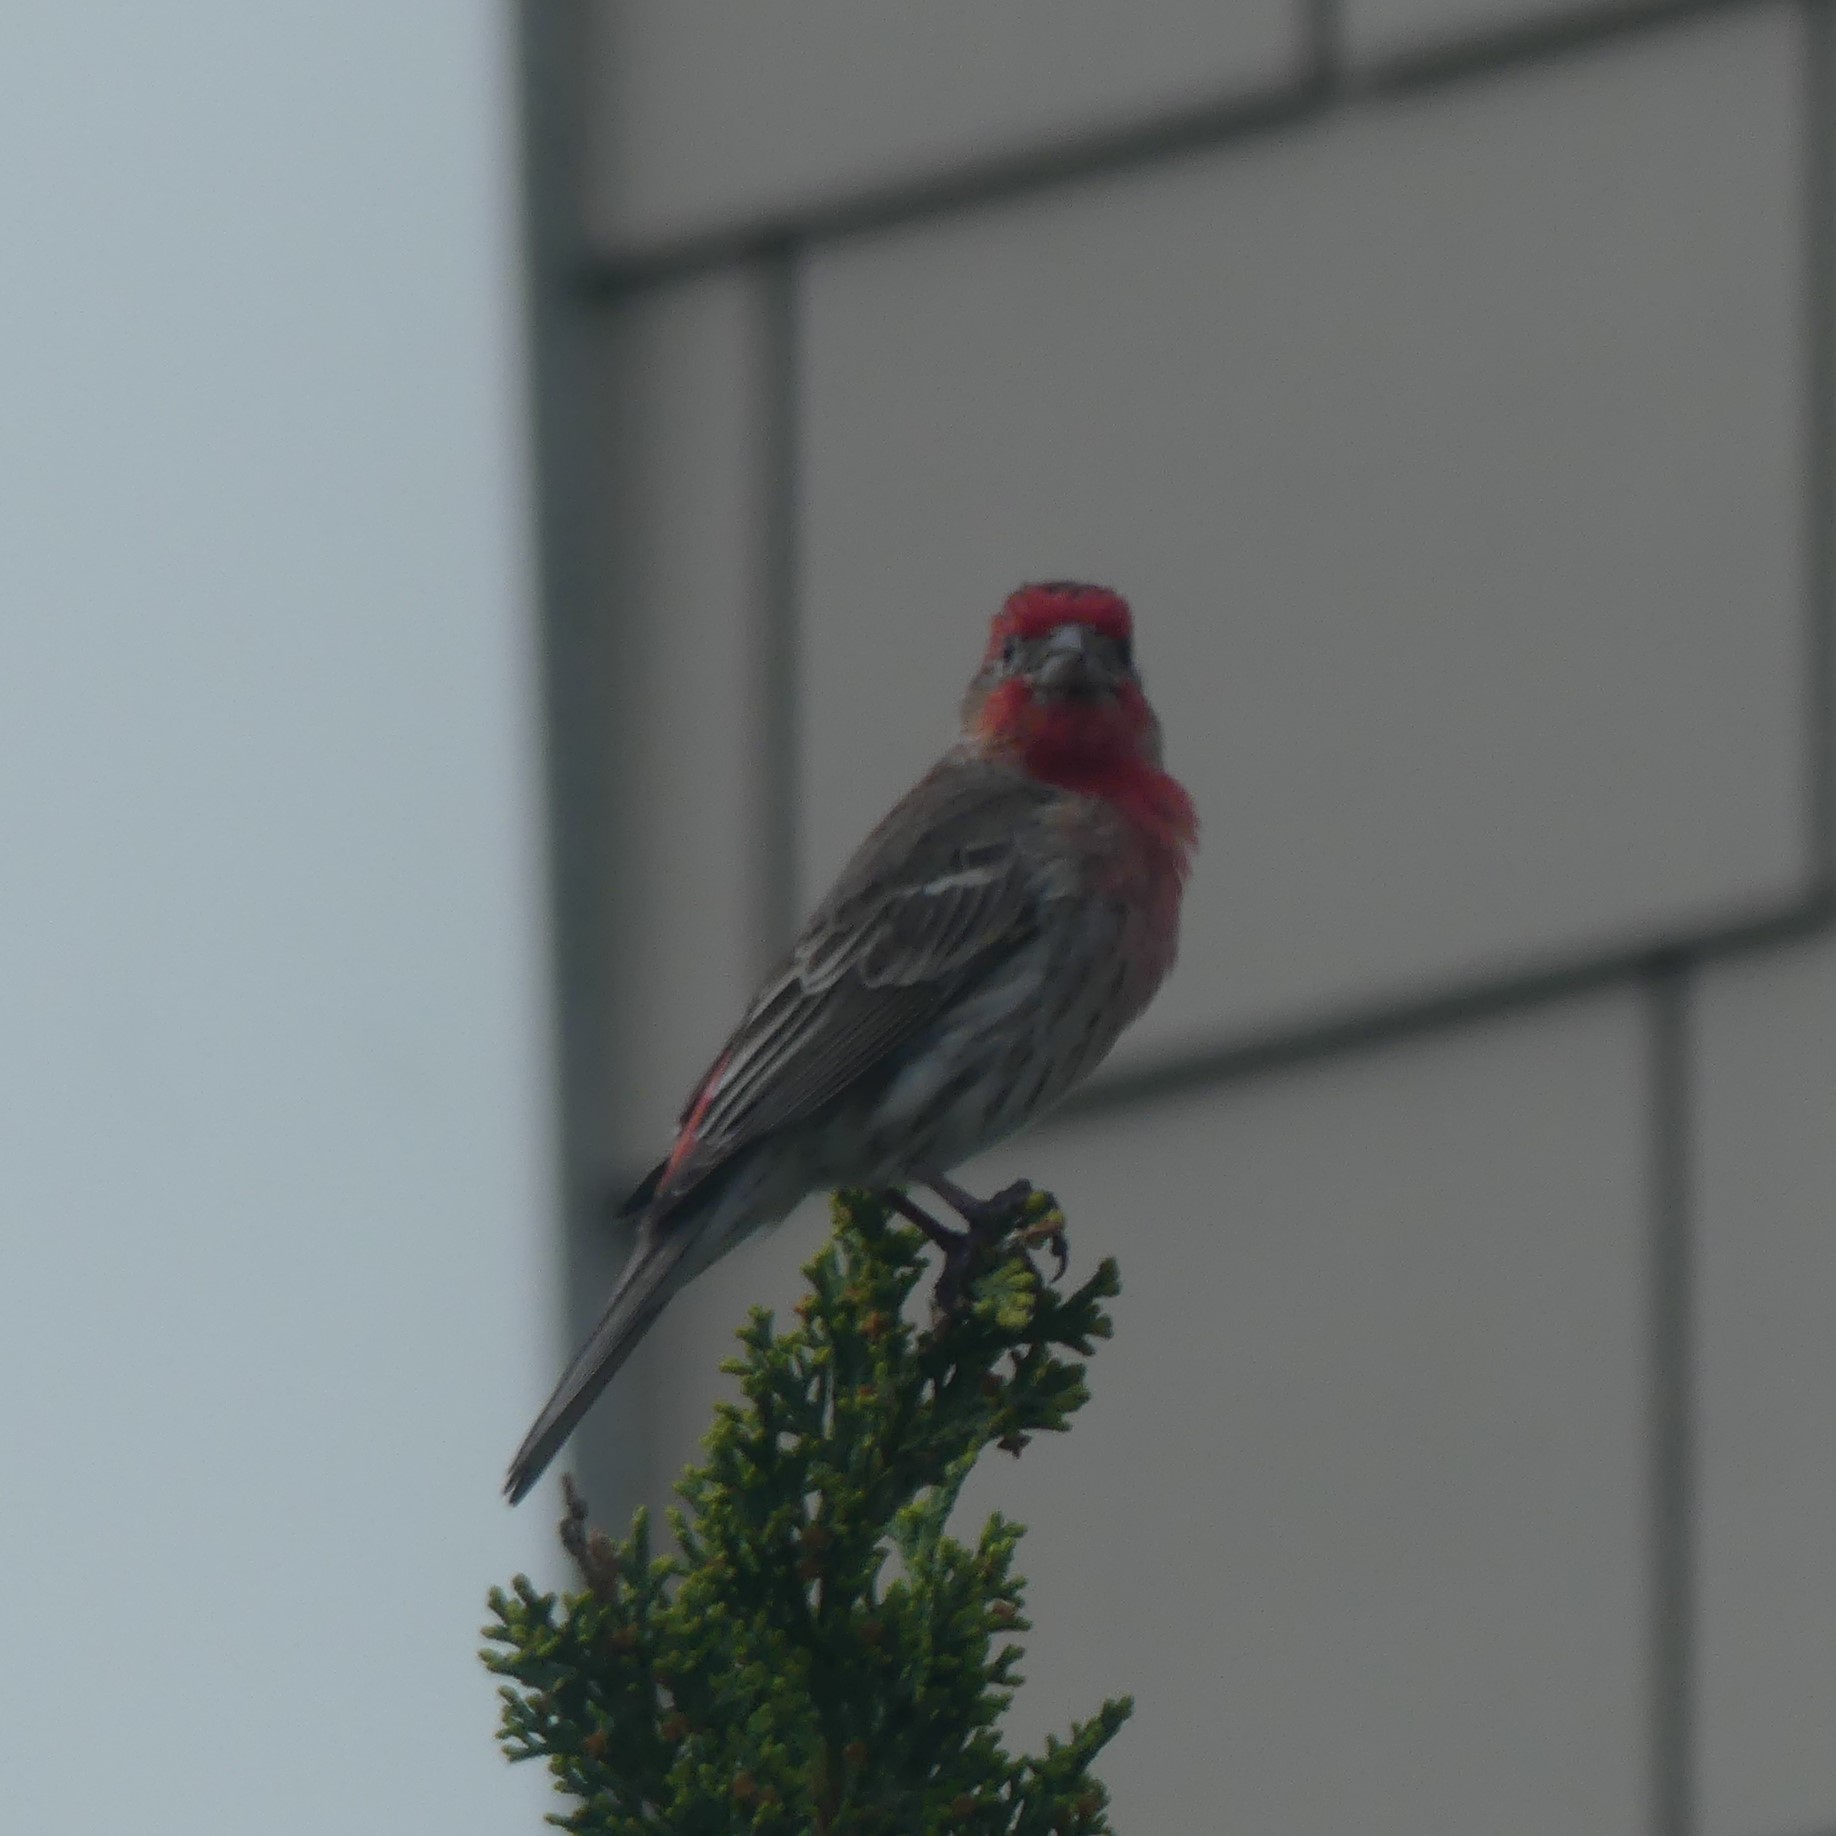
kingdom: Animalia
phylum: Chordata
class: Aves
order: Passeriformes
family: Fringillidae
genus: Haemorhous
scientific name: Haemorhous mexicanus
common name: House finch
